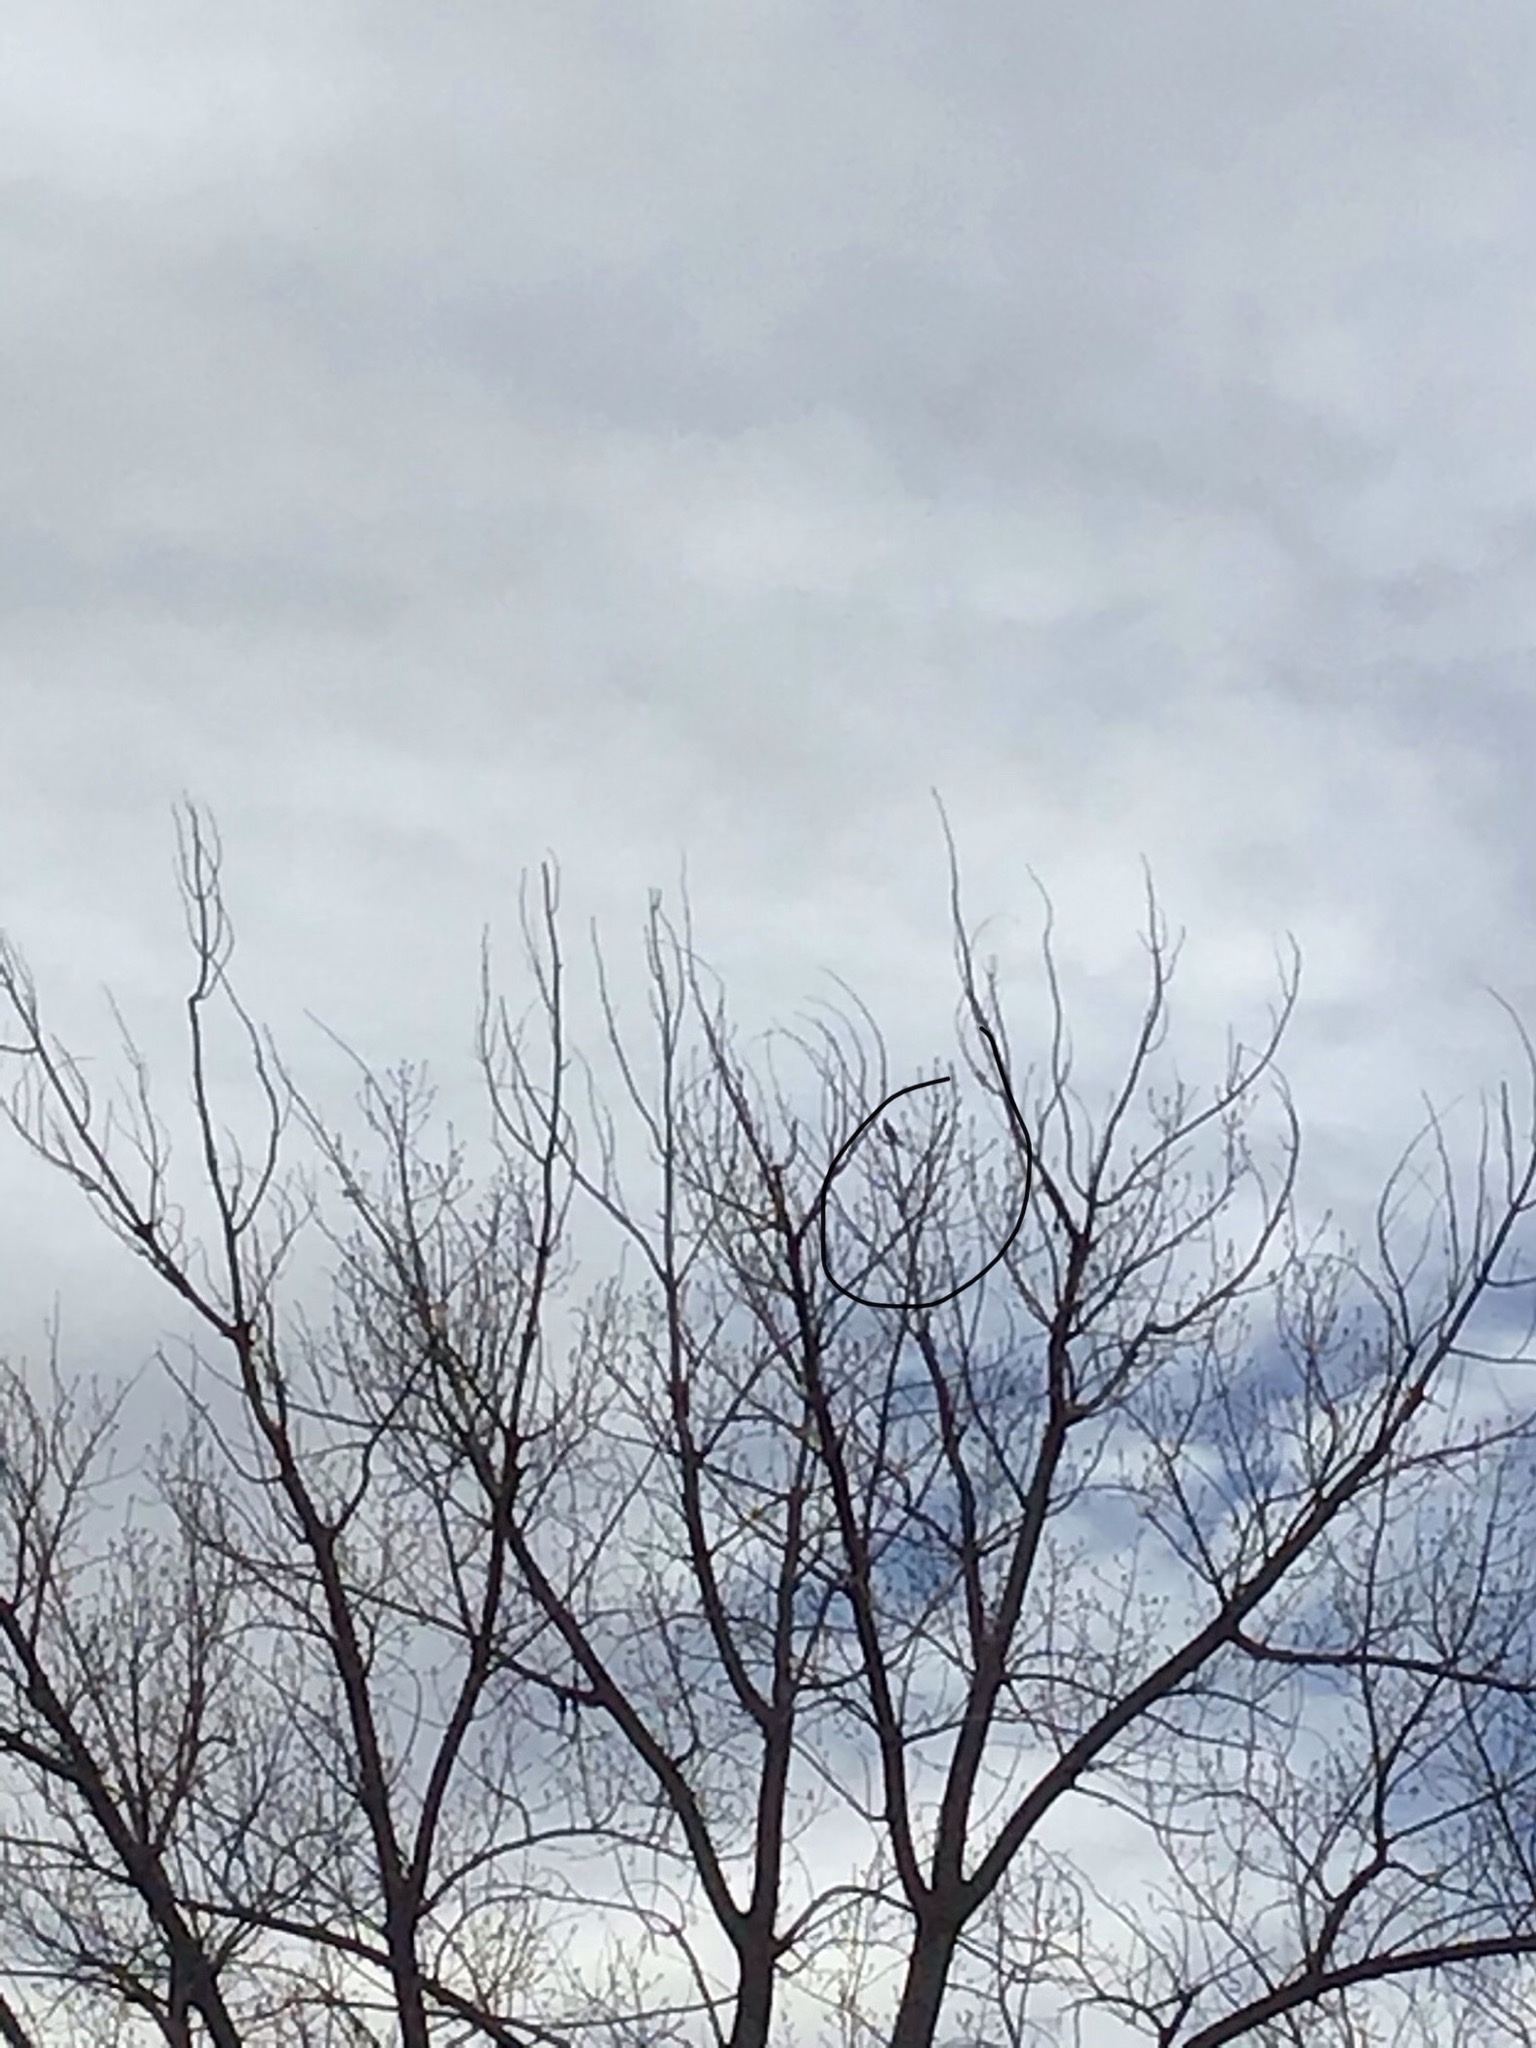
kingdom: Animalia
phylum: Chordata
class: Aves
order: Passeriformes
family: Turdidae
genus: Turdus
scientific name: Turdus migratorius
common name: American robin
